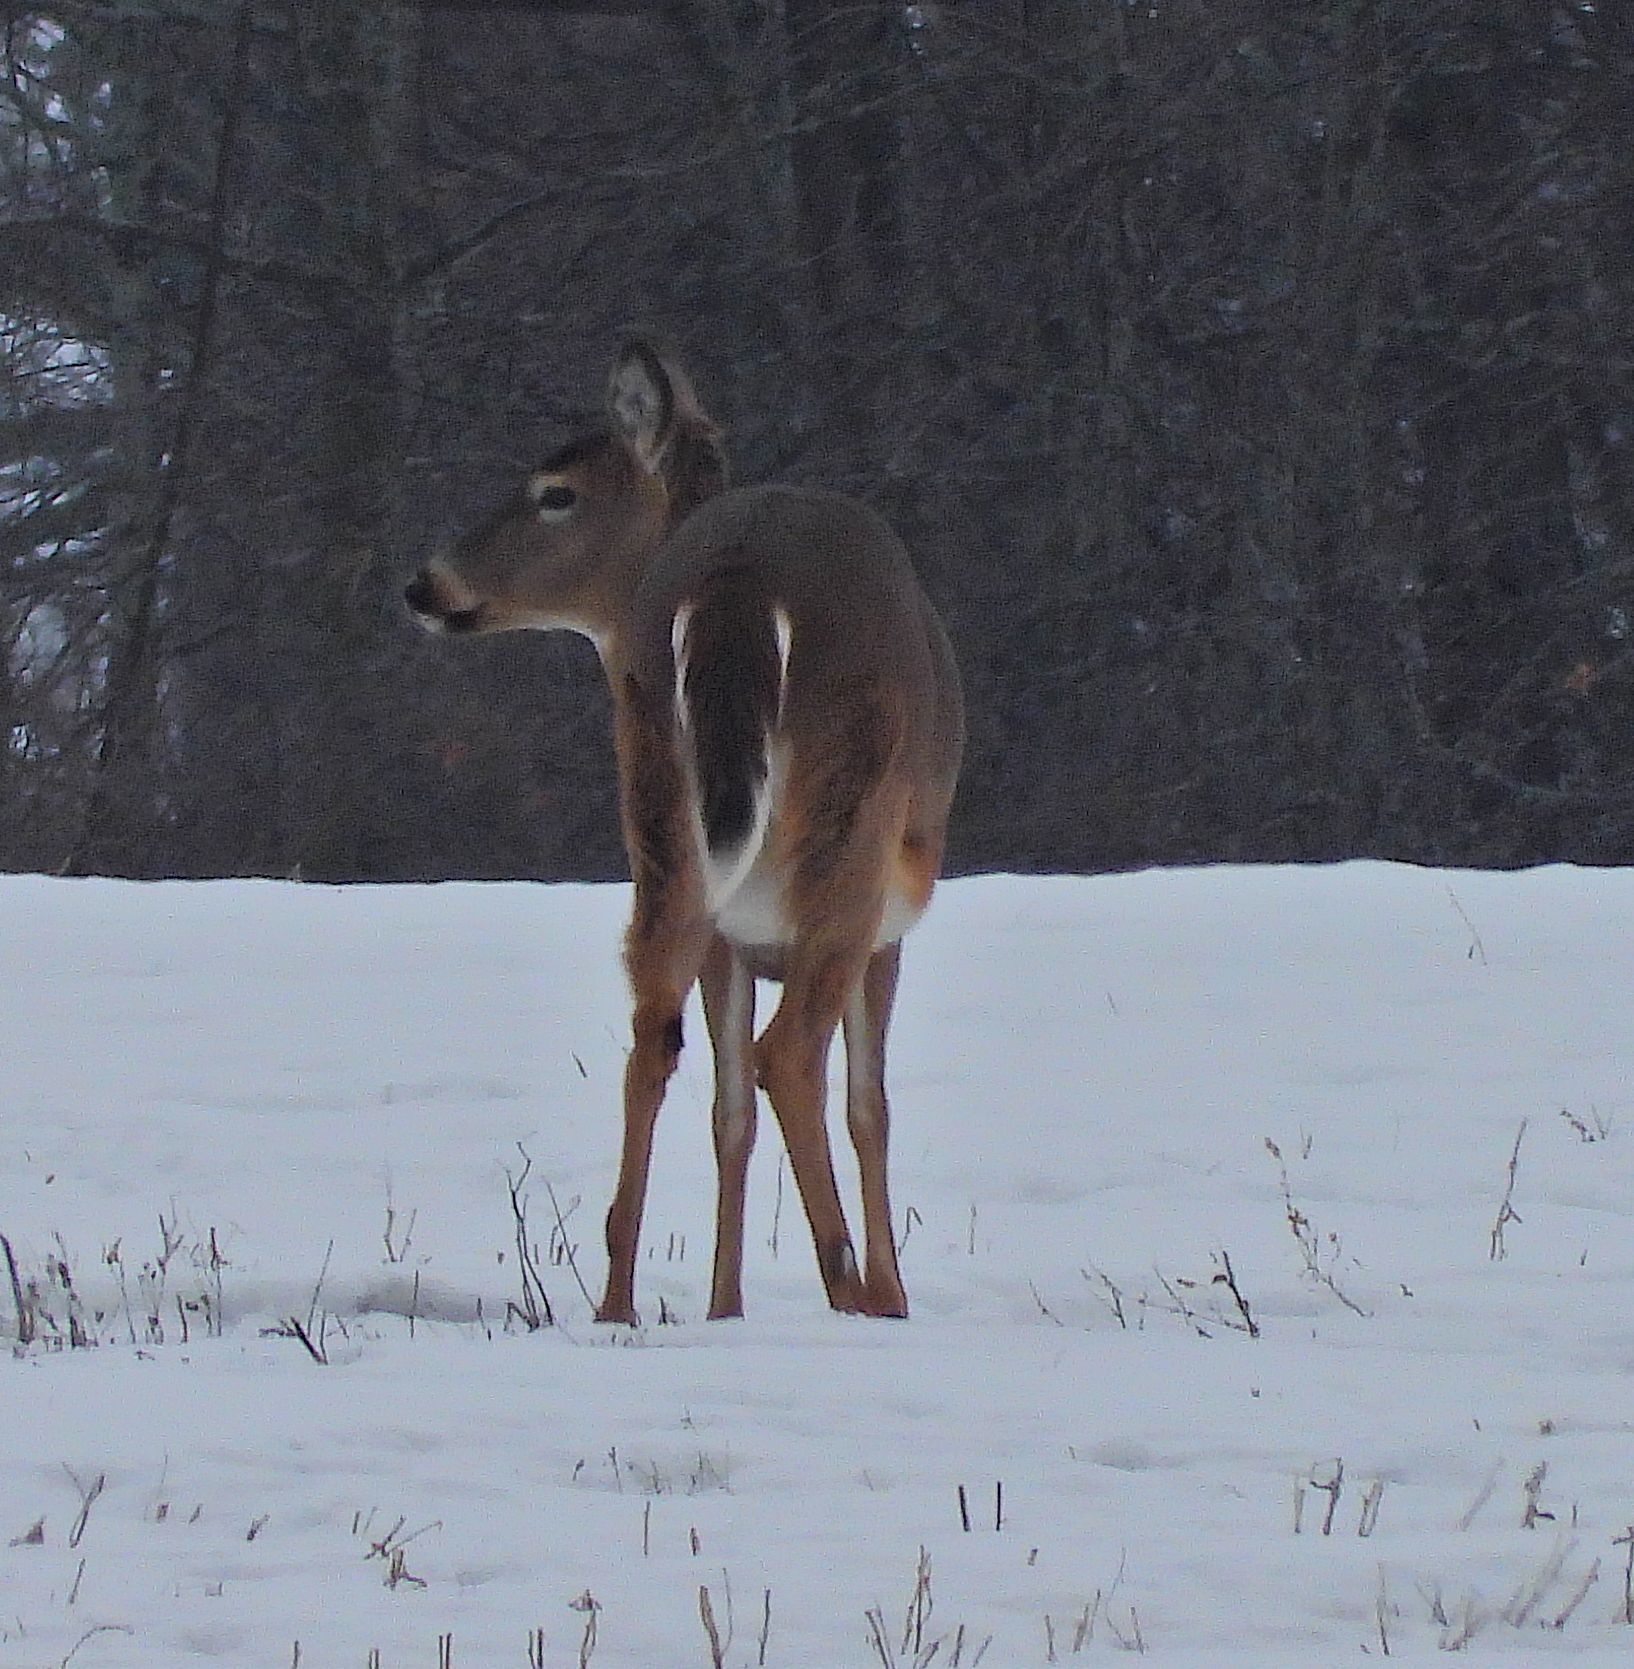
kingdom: Animalia
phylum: Chordata
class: Mammalia
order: Artiodactyla
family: Cervidae
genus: Odocoileus
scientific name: Odocoileus virginianus
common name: White-tailed deer
